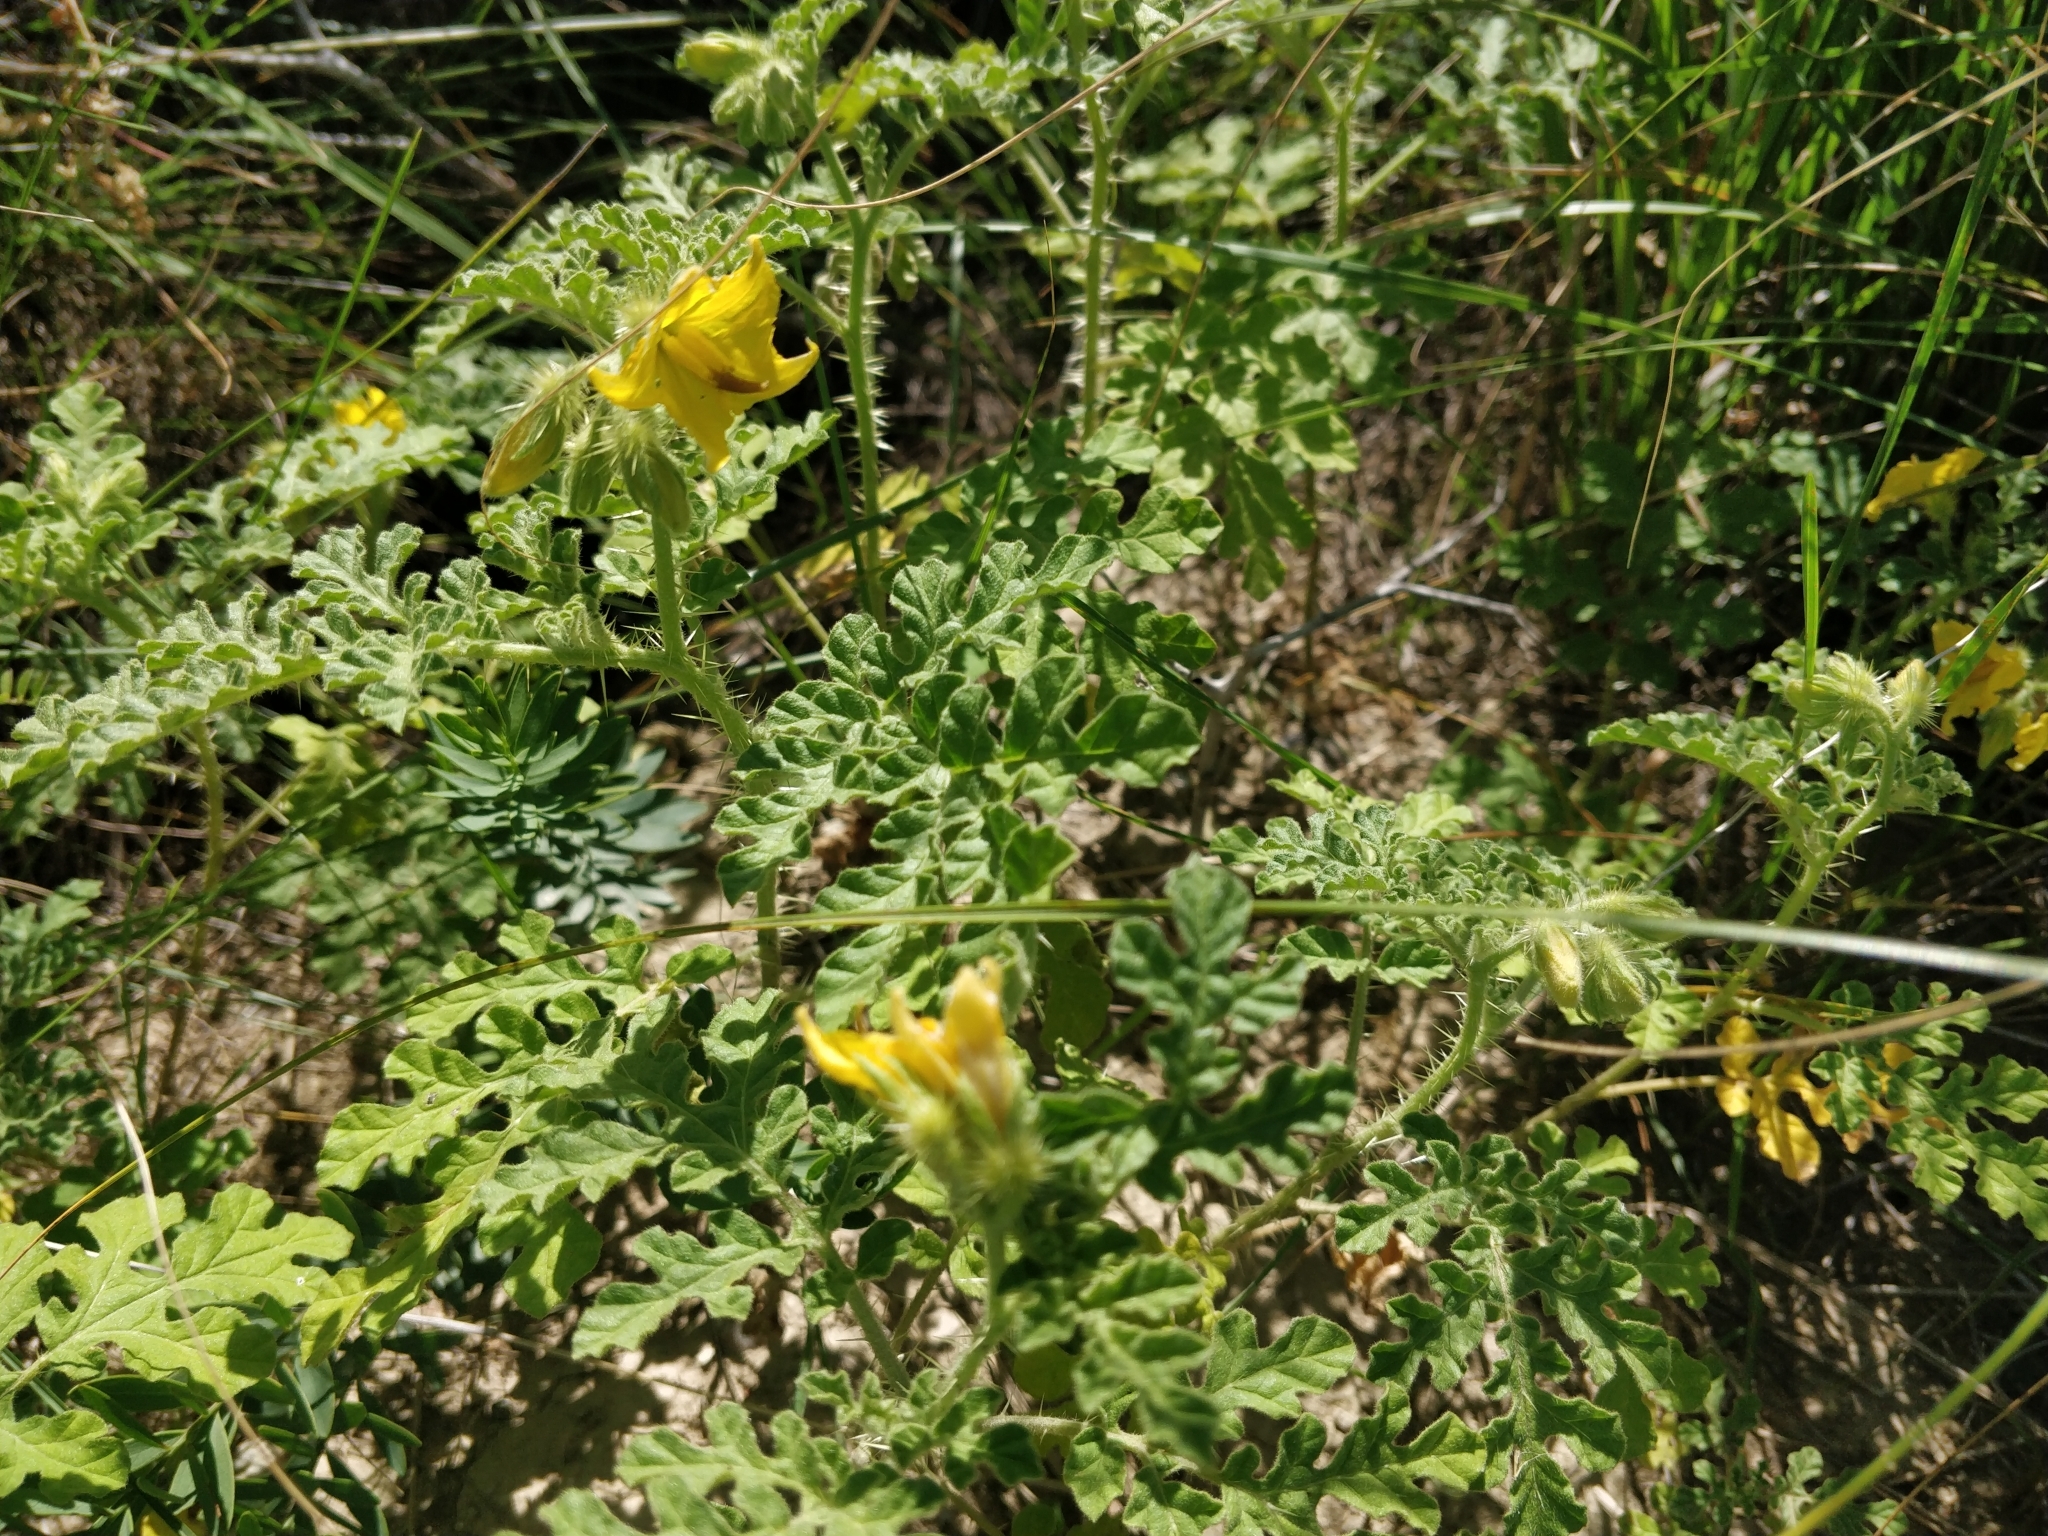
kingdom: Plantae
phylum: Tracheophyta
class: Magnoliopsida
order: Solanales
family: Solanaceae
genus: Solanum
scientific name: Solanum angustifolium
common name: Buffalobur nightshade
